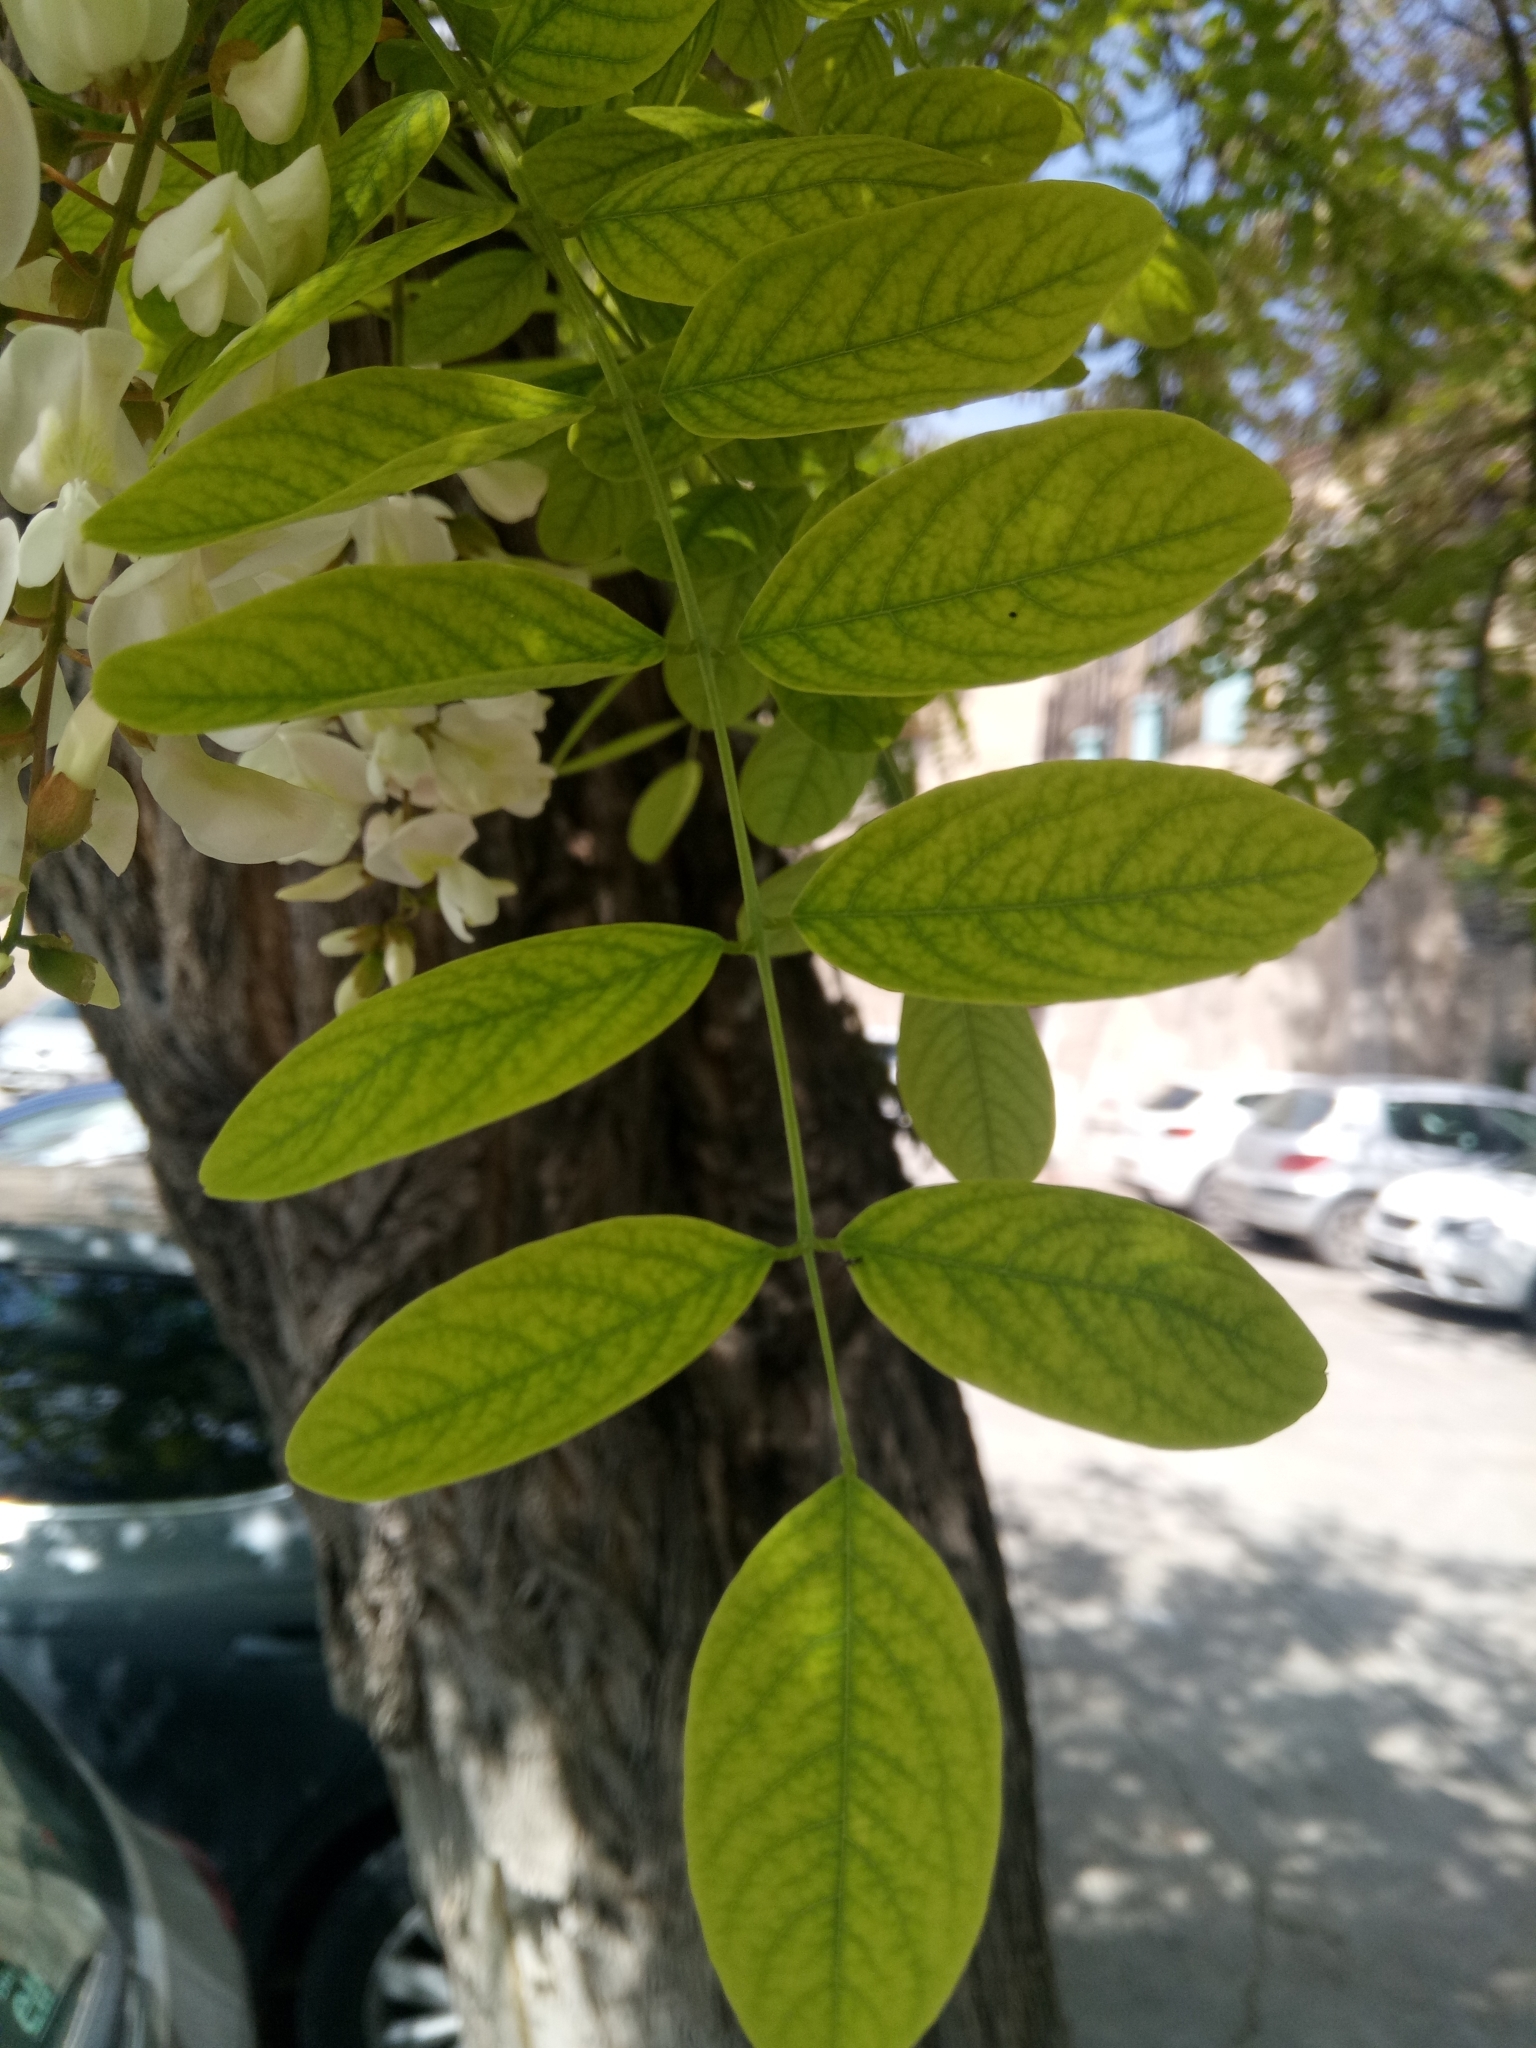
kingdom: Plantae
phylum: Tracheophyta
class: Magnoliopsida
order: Fabales
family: Fabaceae
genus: Robinia
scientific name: Robinia pseudoacacia
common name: Black locust
